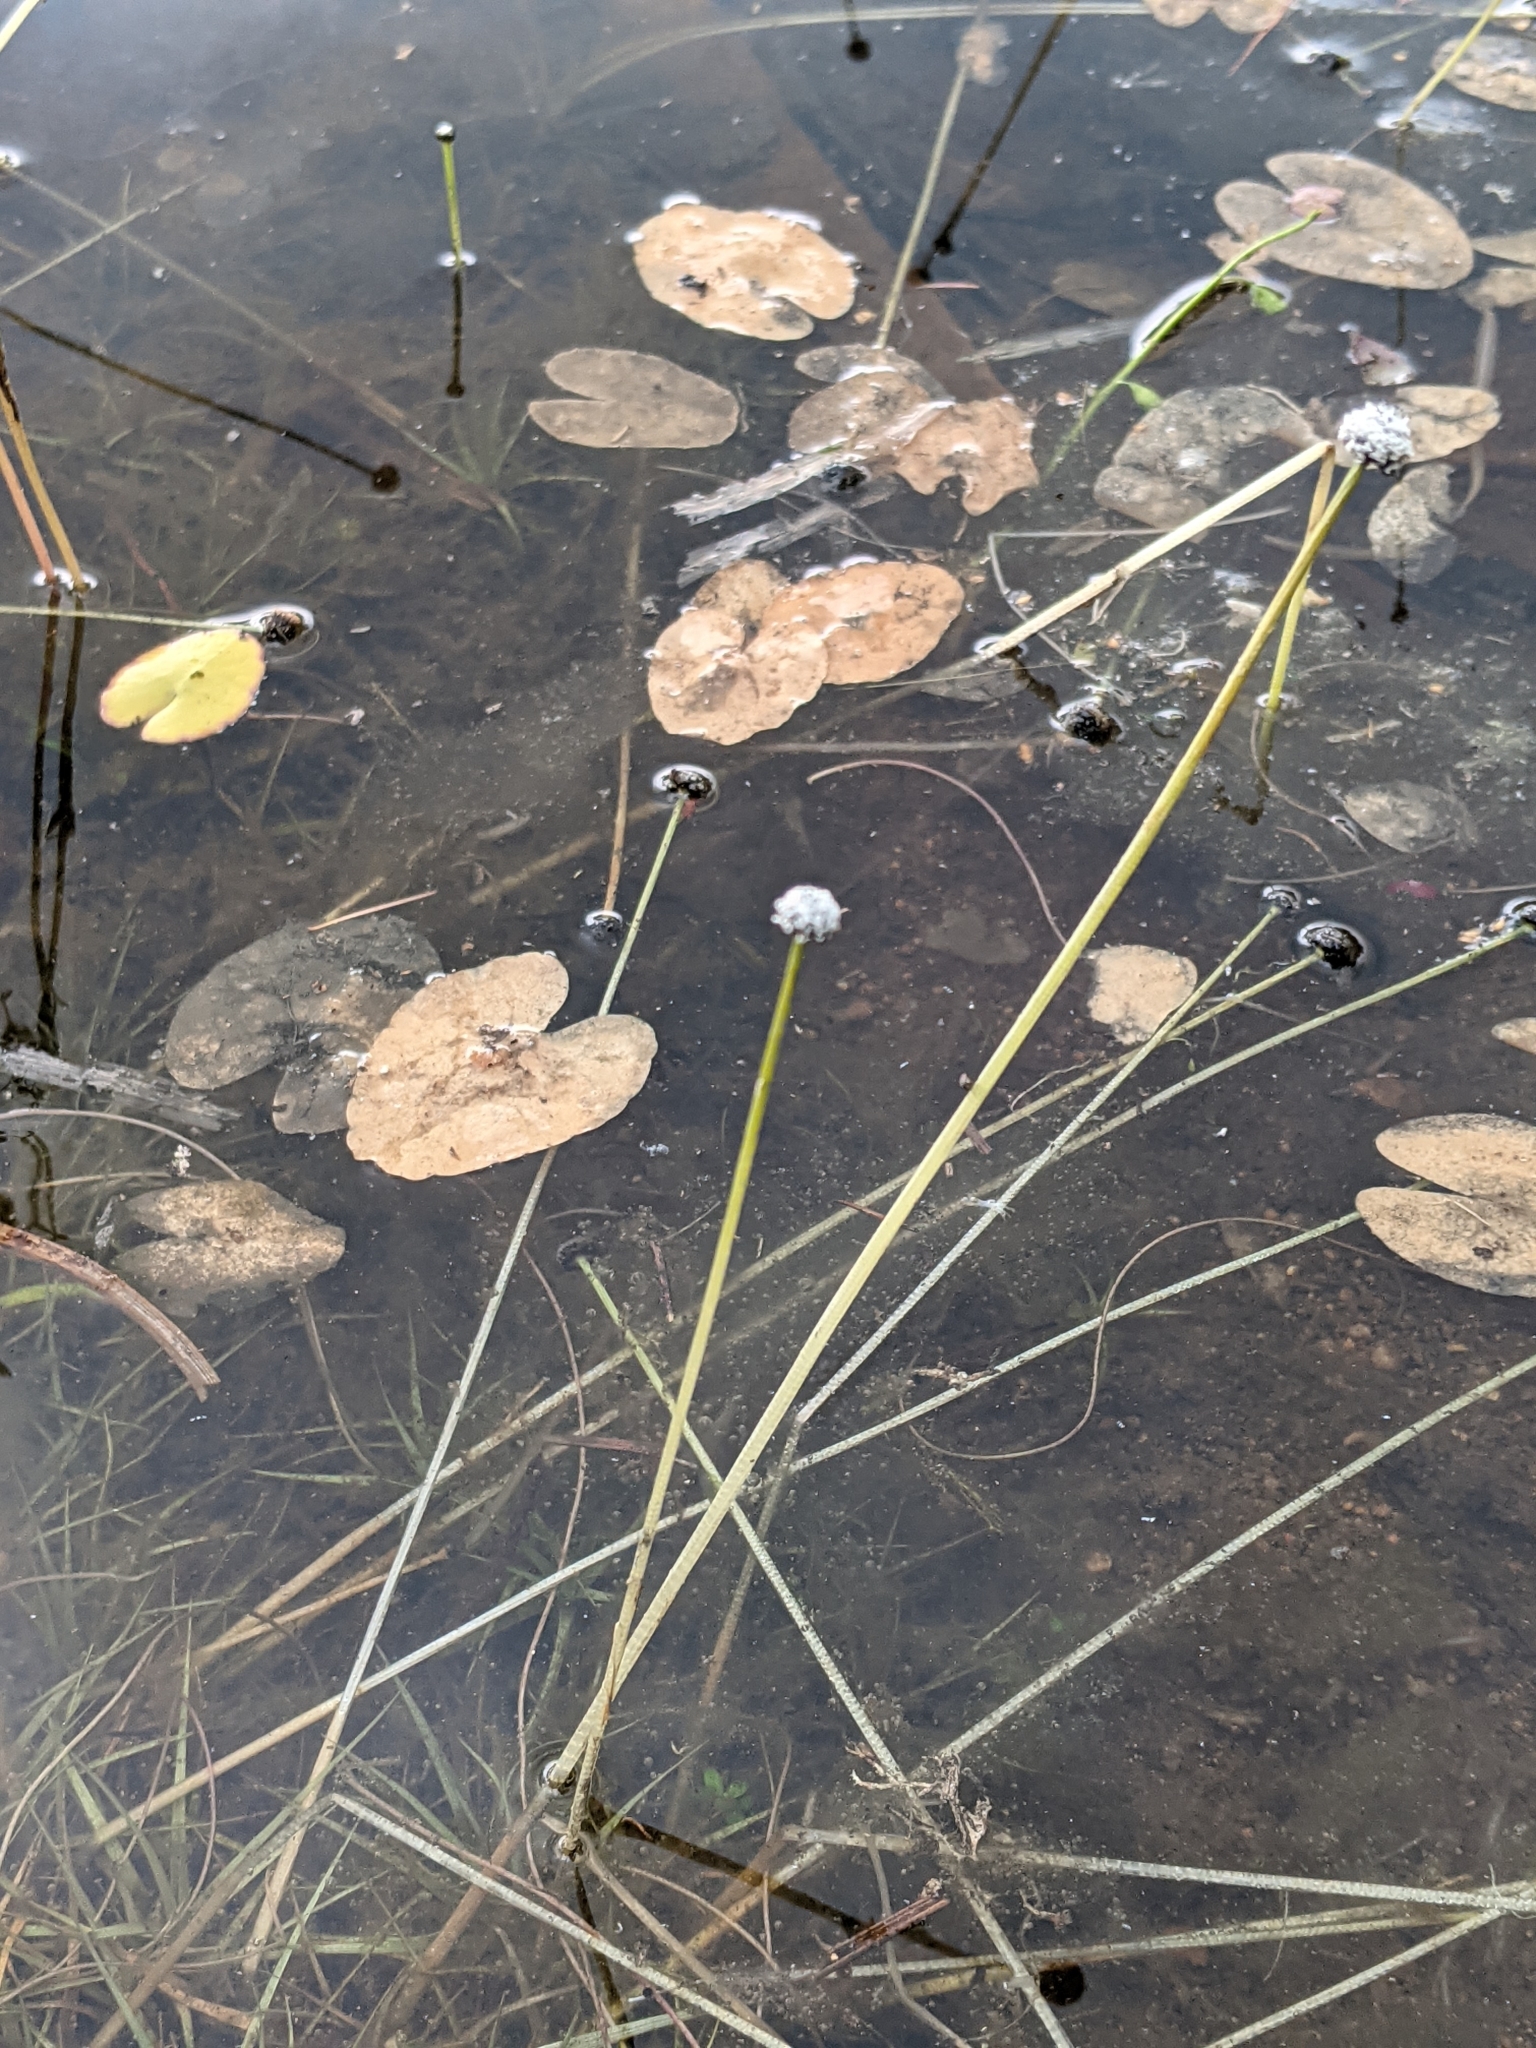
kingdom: Plantae
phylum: Tracheophyta
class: Liliopsida
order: Poales
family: Eriocaulaceae
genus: Eriocaulon
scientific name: Eriocaulon aquaticum
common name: Pipewort
